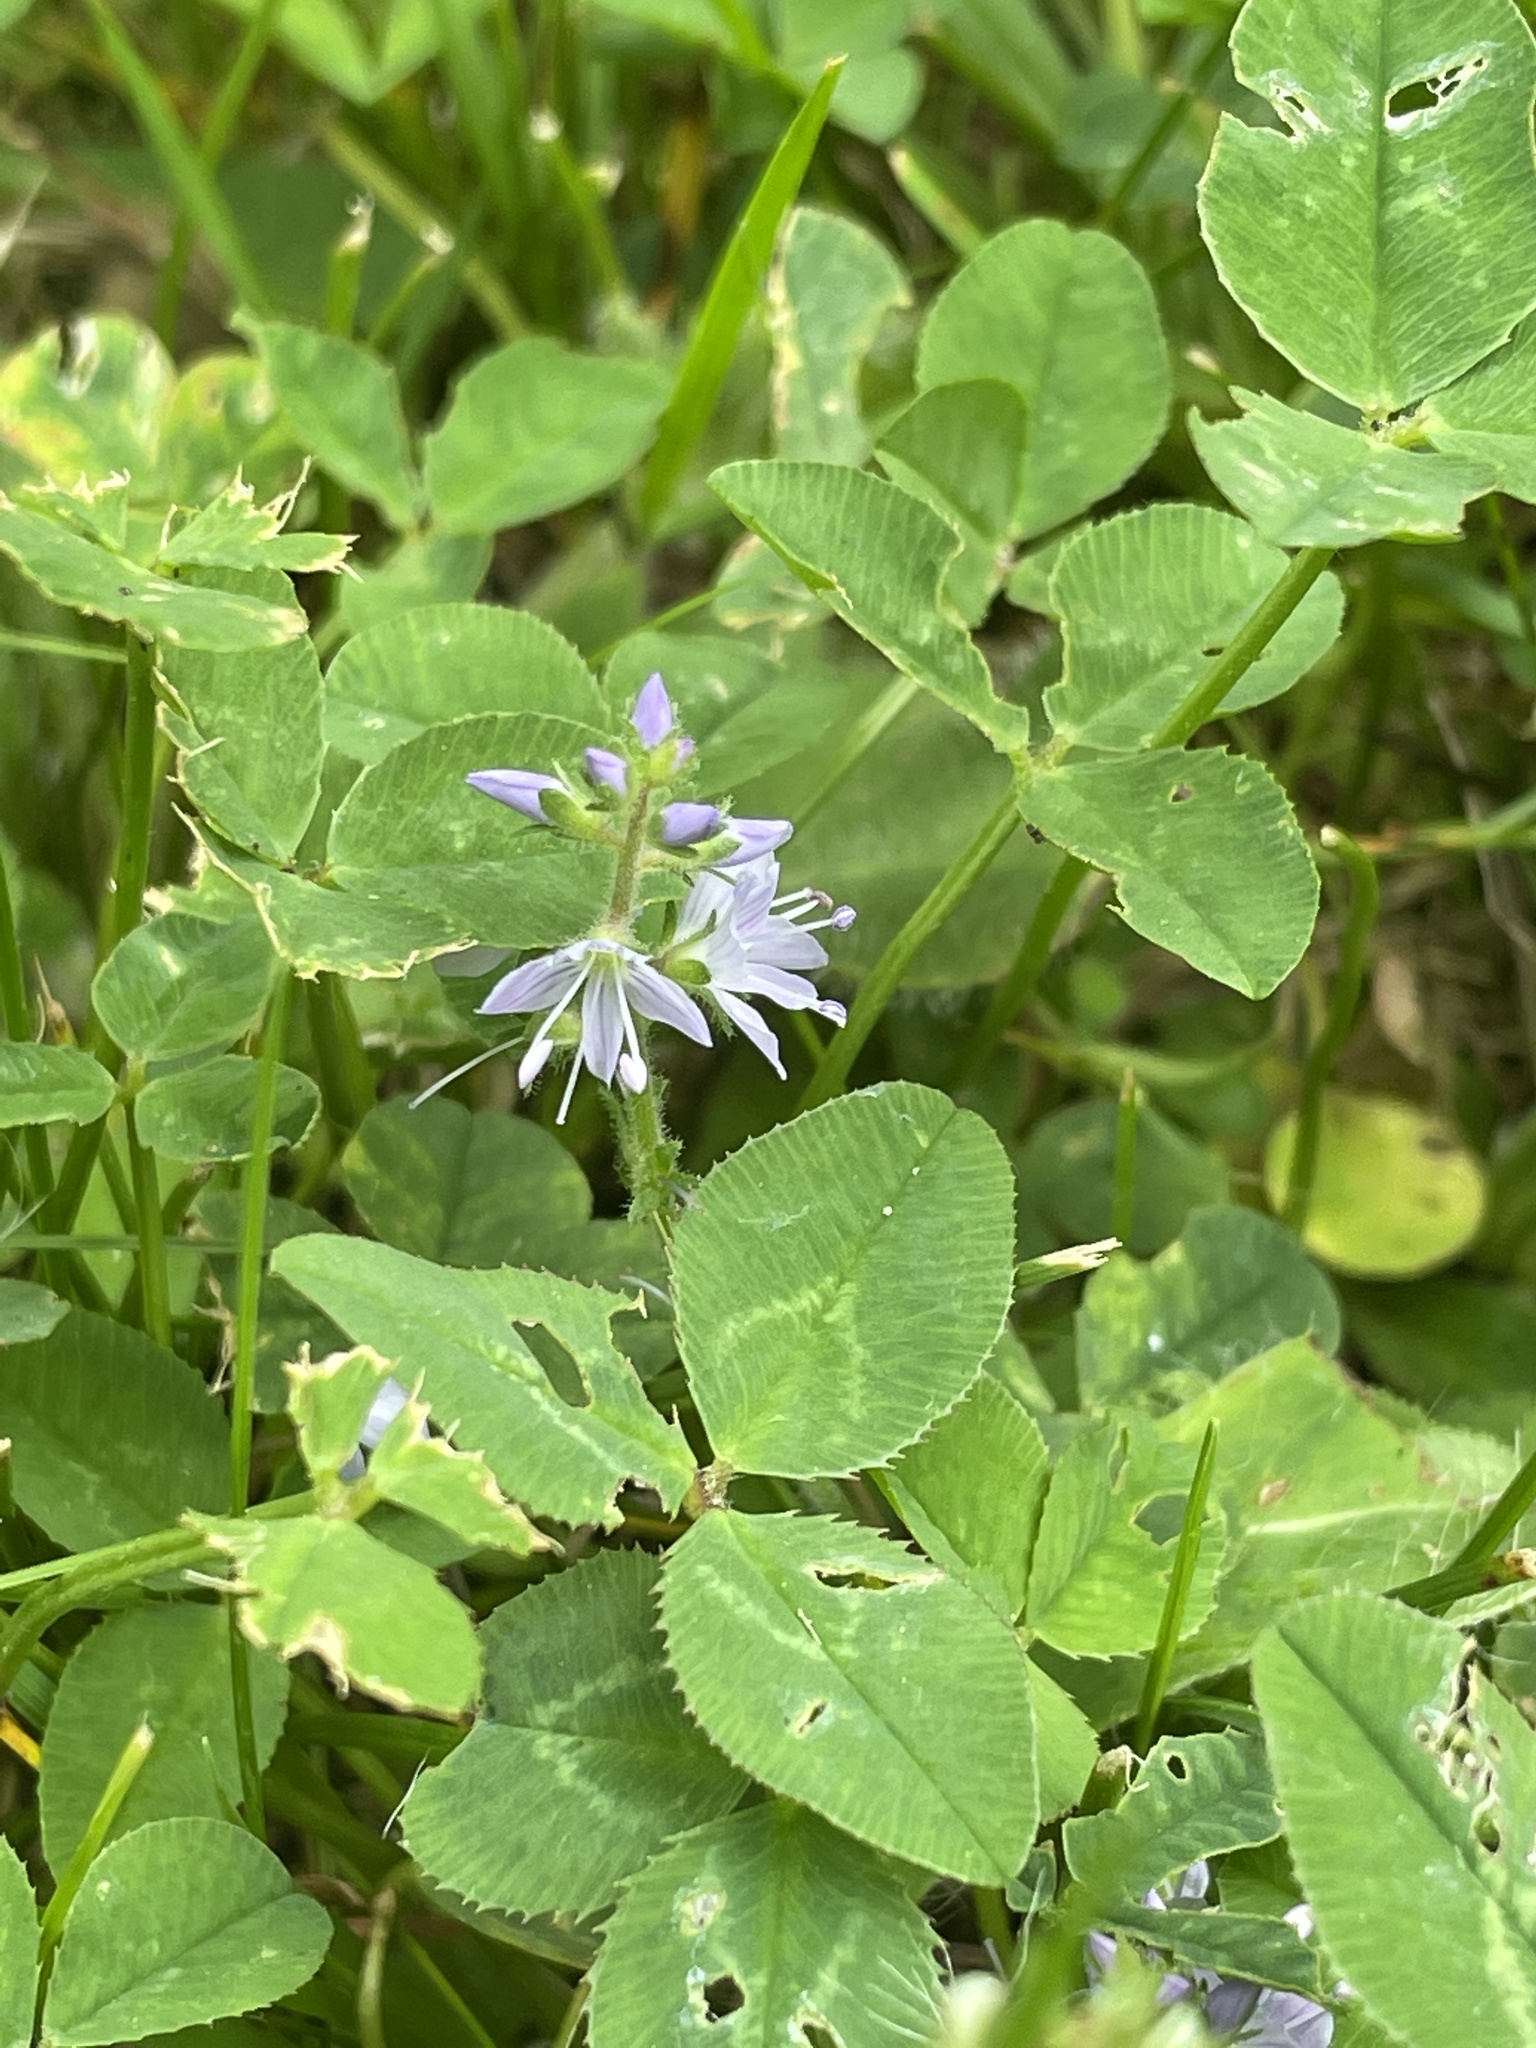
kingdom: Plantae
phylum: Tracheophyta
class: Magnoliopsida
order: Lamiales
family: Plantaginaceae
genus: Veronica
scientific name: Veronica officinalis
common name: Common speedwell
